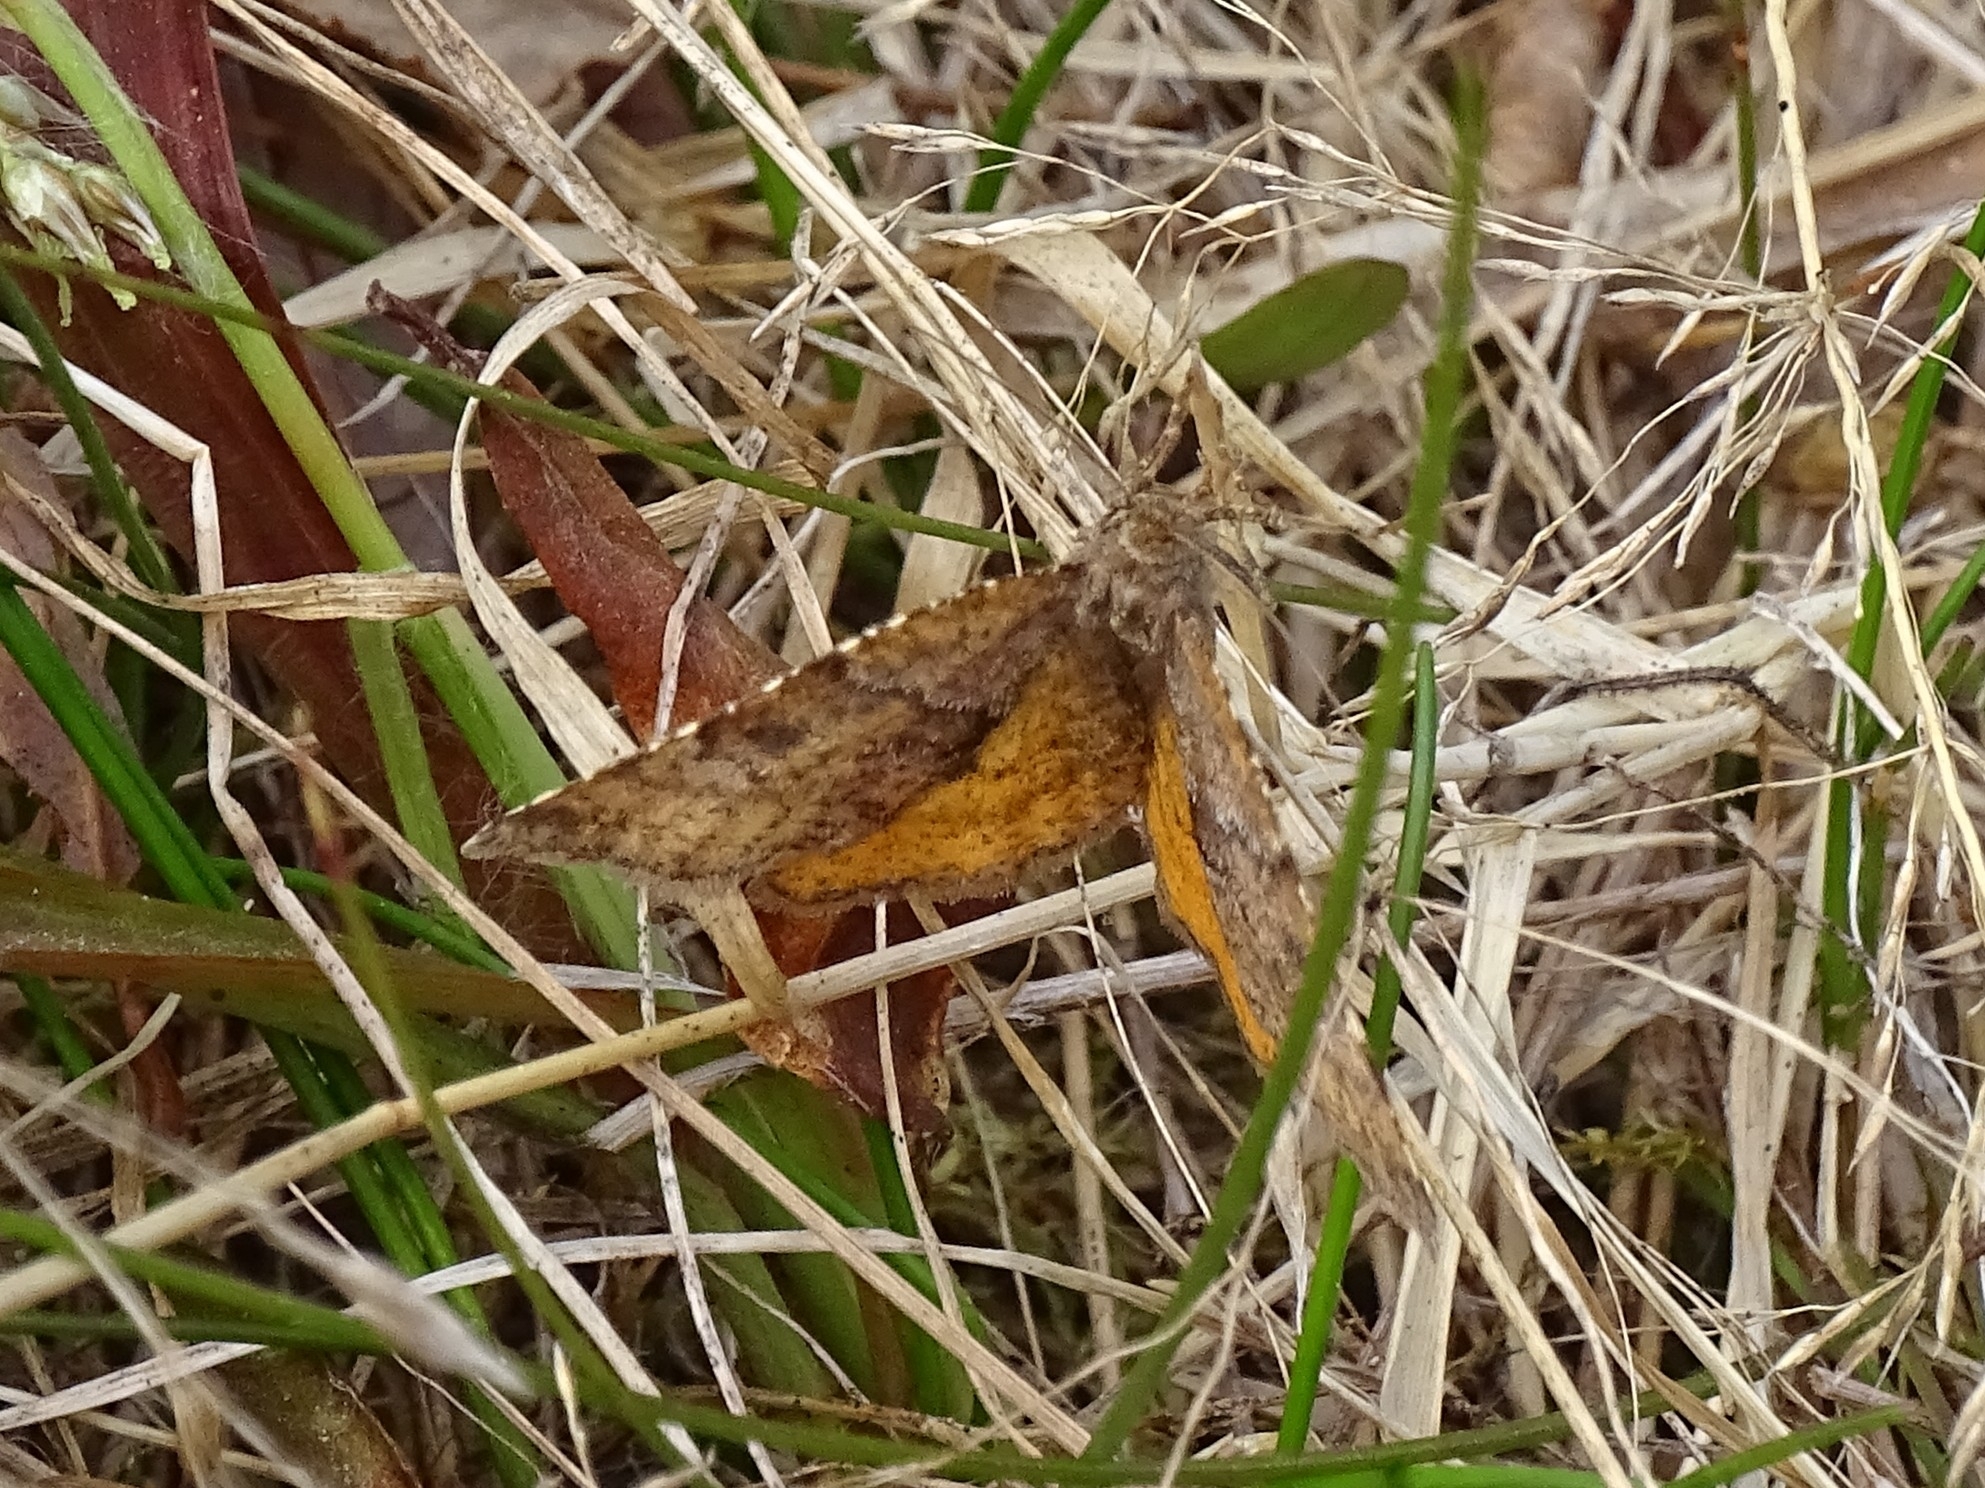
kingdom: Animalia
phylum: Arthropoda
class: Insecta
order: Lepidoptera
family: Geometridae
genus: Epirranthis
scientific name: Epirranthis diversata
